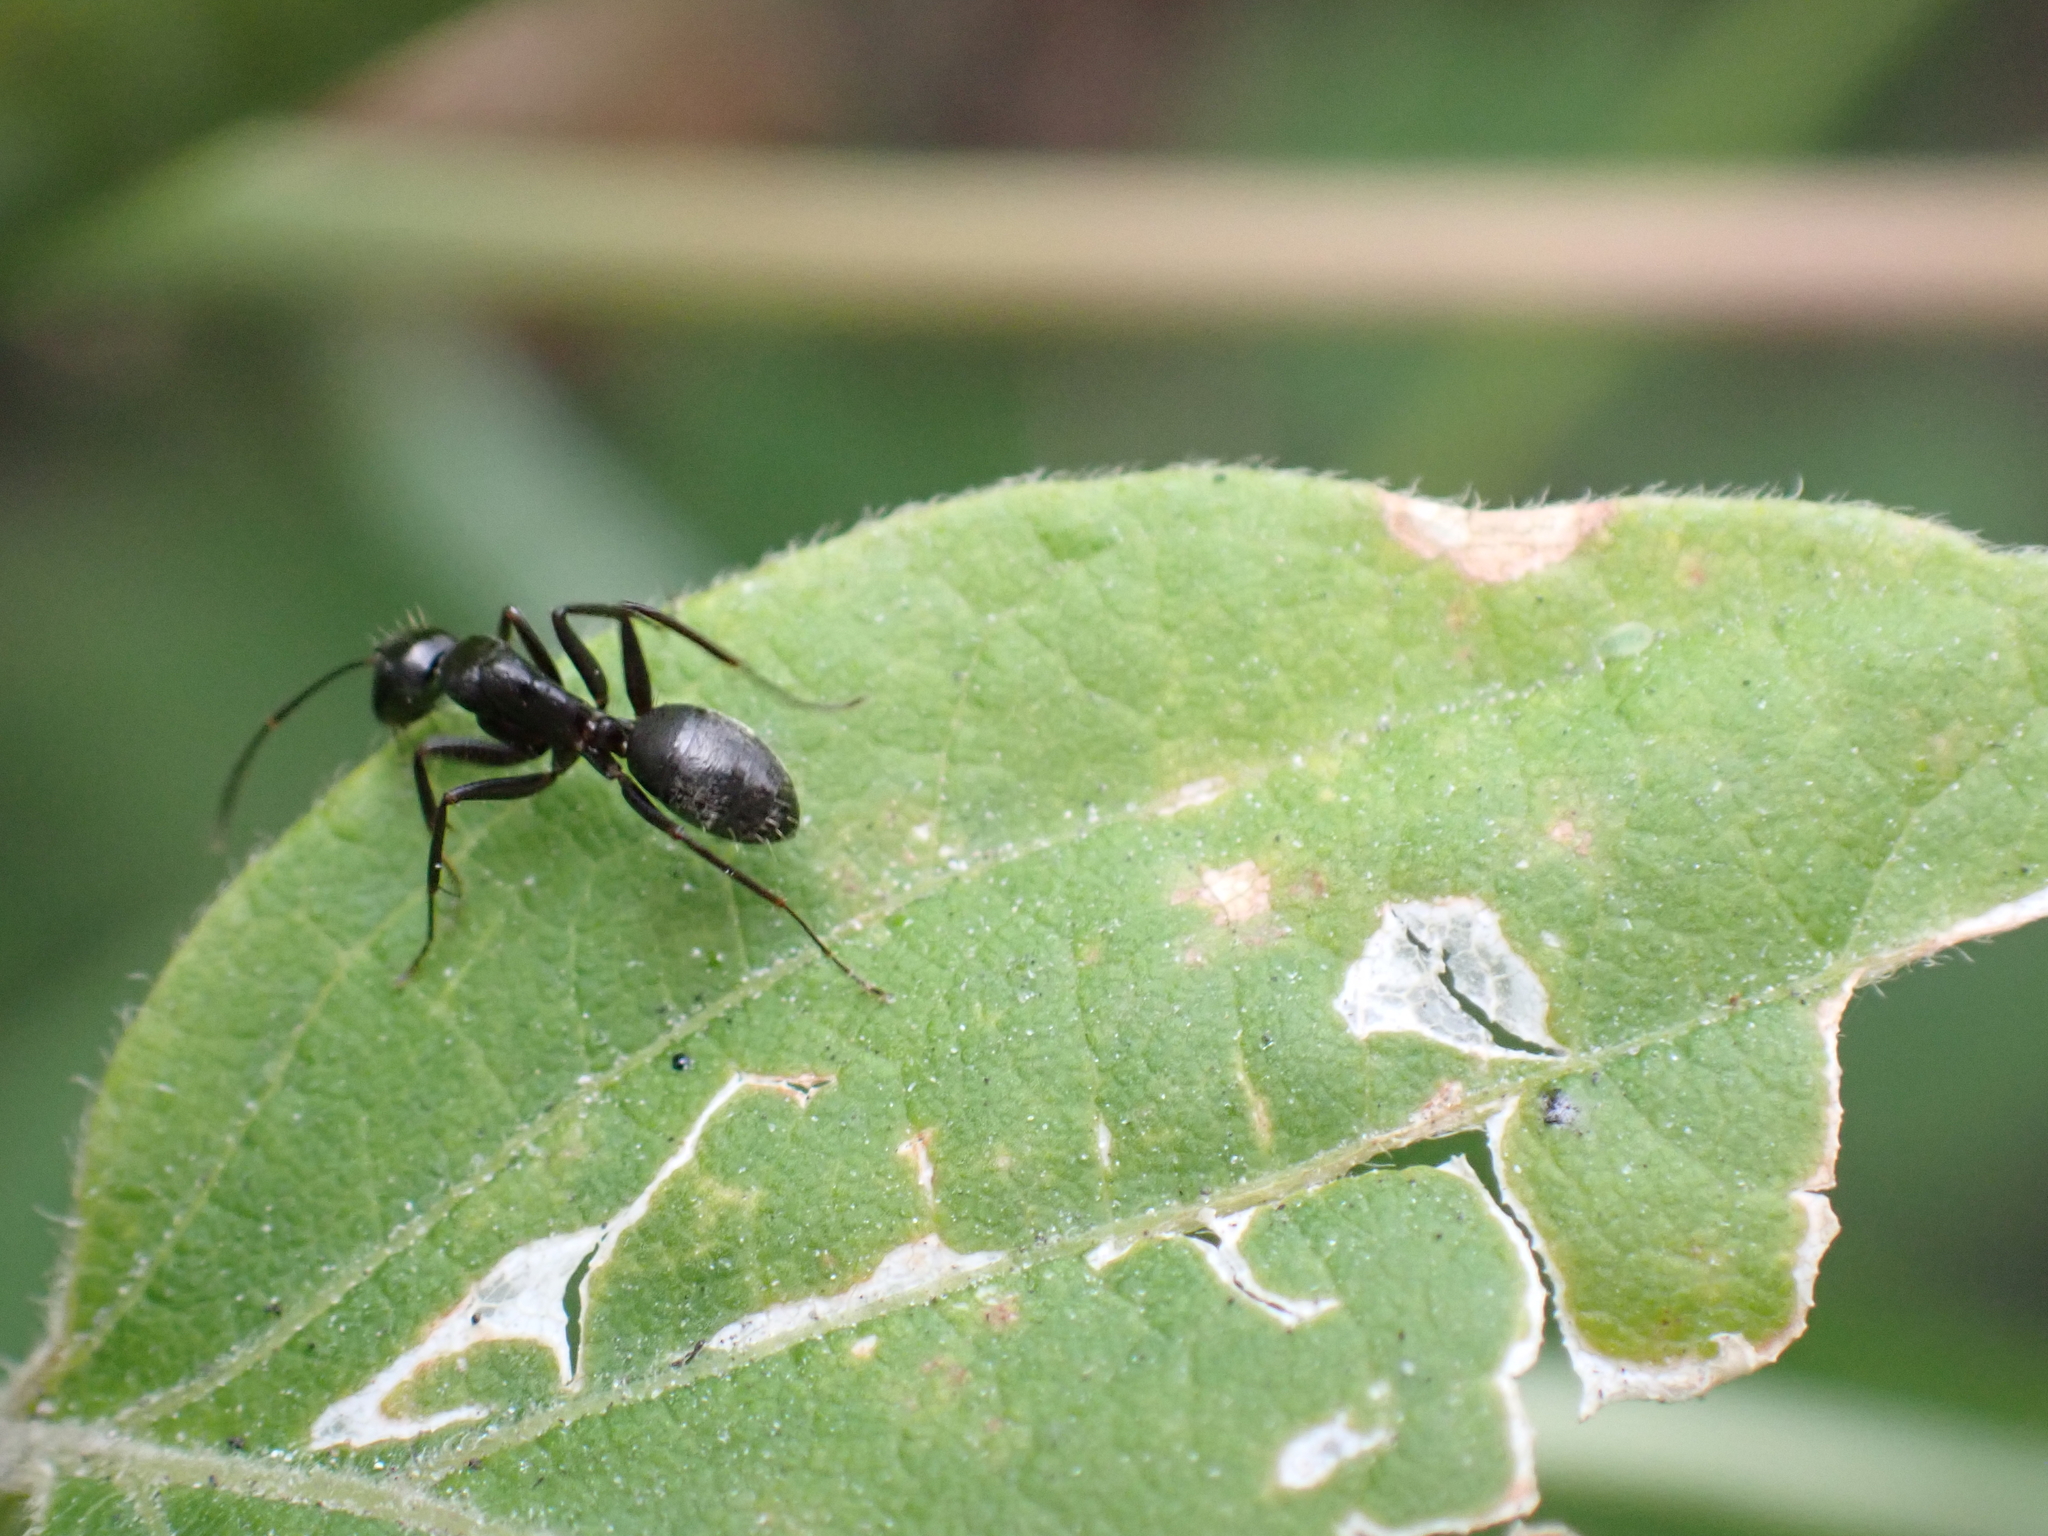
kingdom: Animalia
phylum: Arthropoda
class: Insecta
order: Hymenoptera
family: Formicidae
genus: Camponotus
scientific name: Camponotus pennsylvanicus
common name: Black carpenter ant
